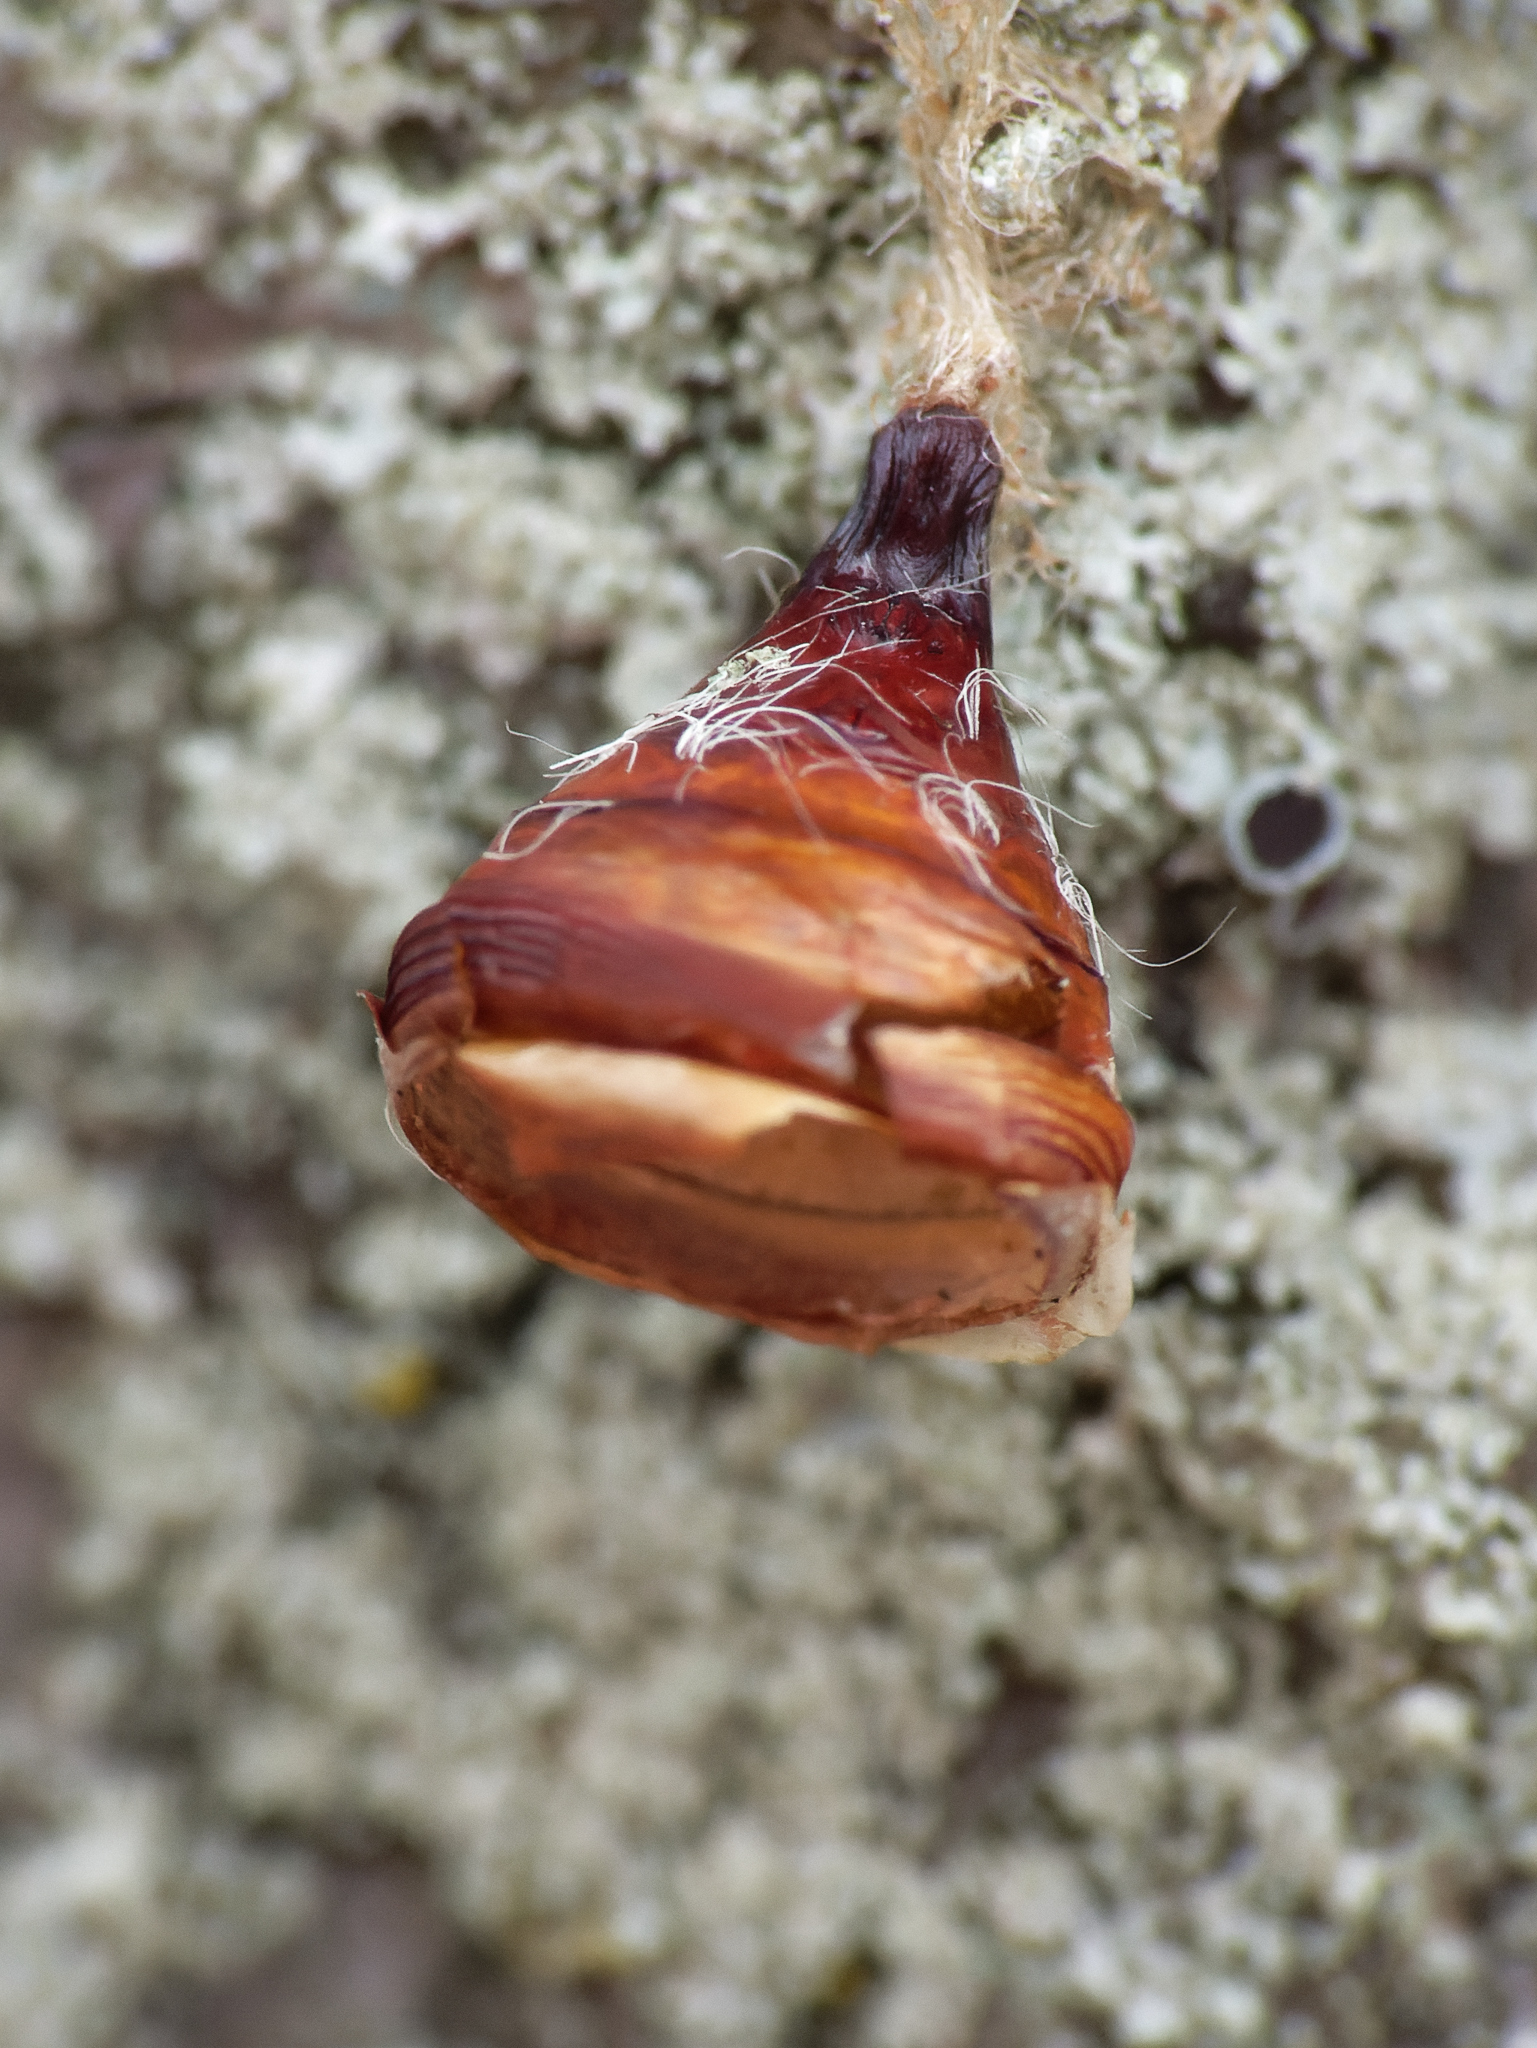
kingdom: Animalia
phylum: Arthropoda
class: Insecta
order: Lepidoptera
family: Erebidae
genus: Lymantria
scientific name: Lymantria dispar
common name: Gypsy moth
